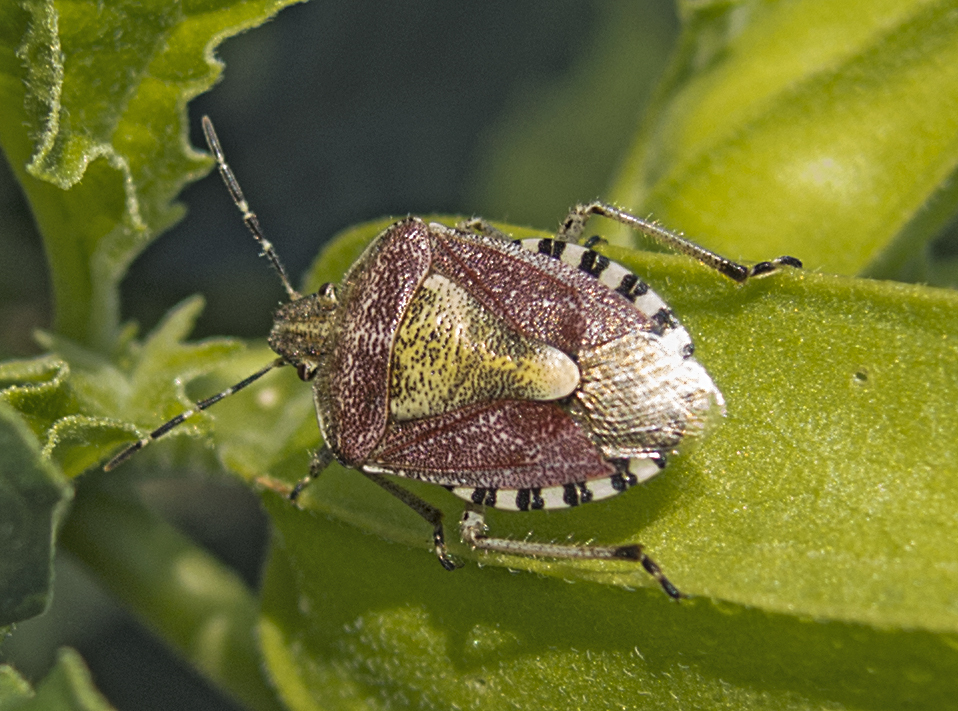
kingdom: Animalia
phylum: Arthropoda
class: Insecta
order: Hemiptera
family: Pentatomidae
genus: Dolycoris
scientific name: Dolycoris baccarum
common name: Sloe bug
